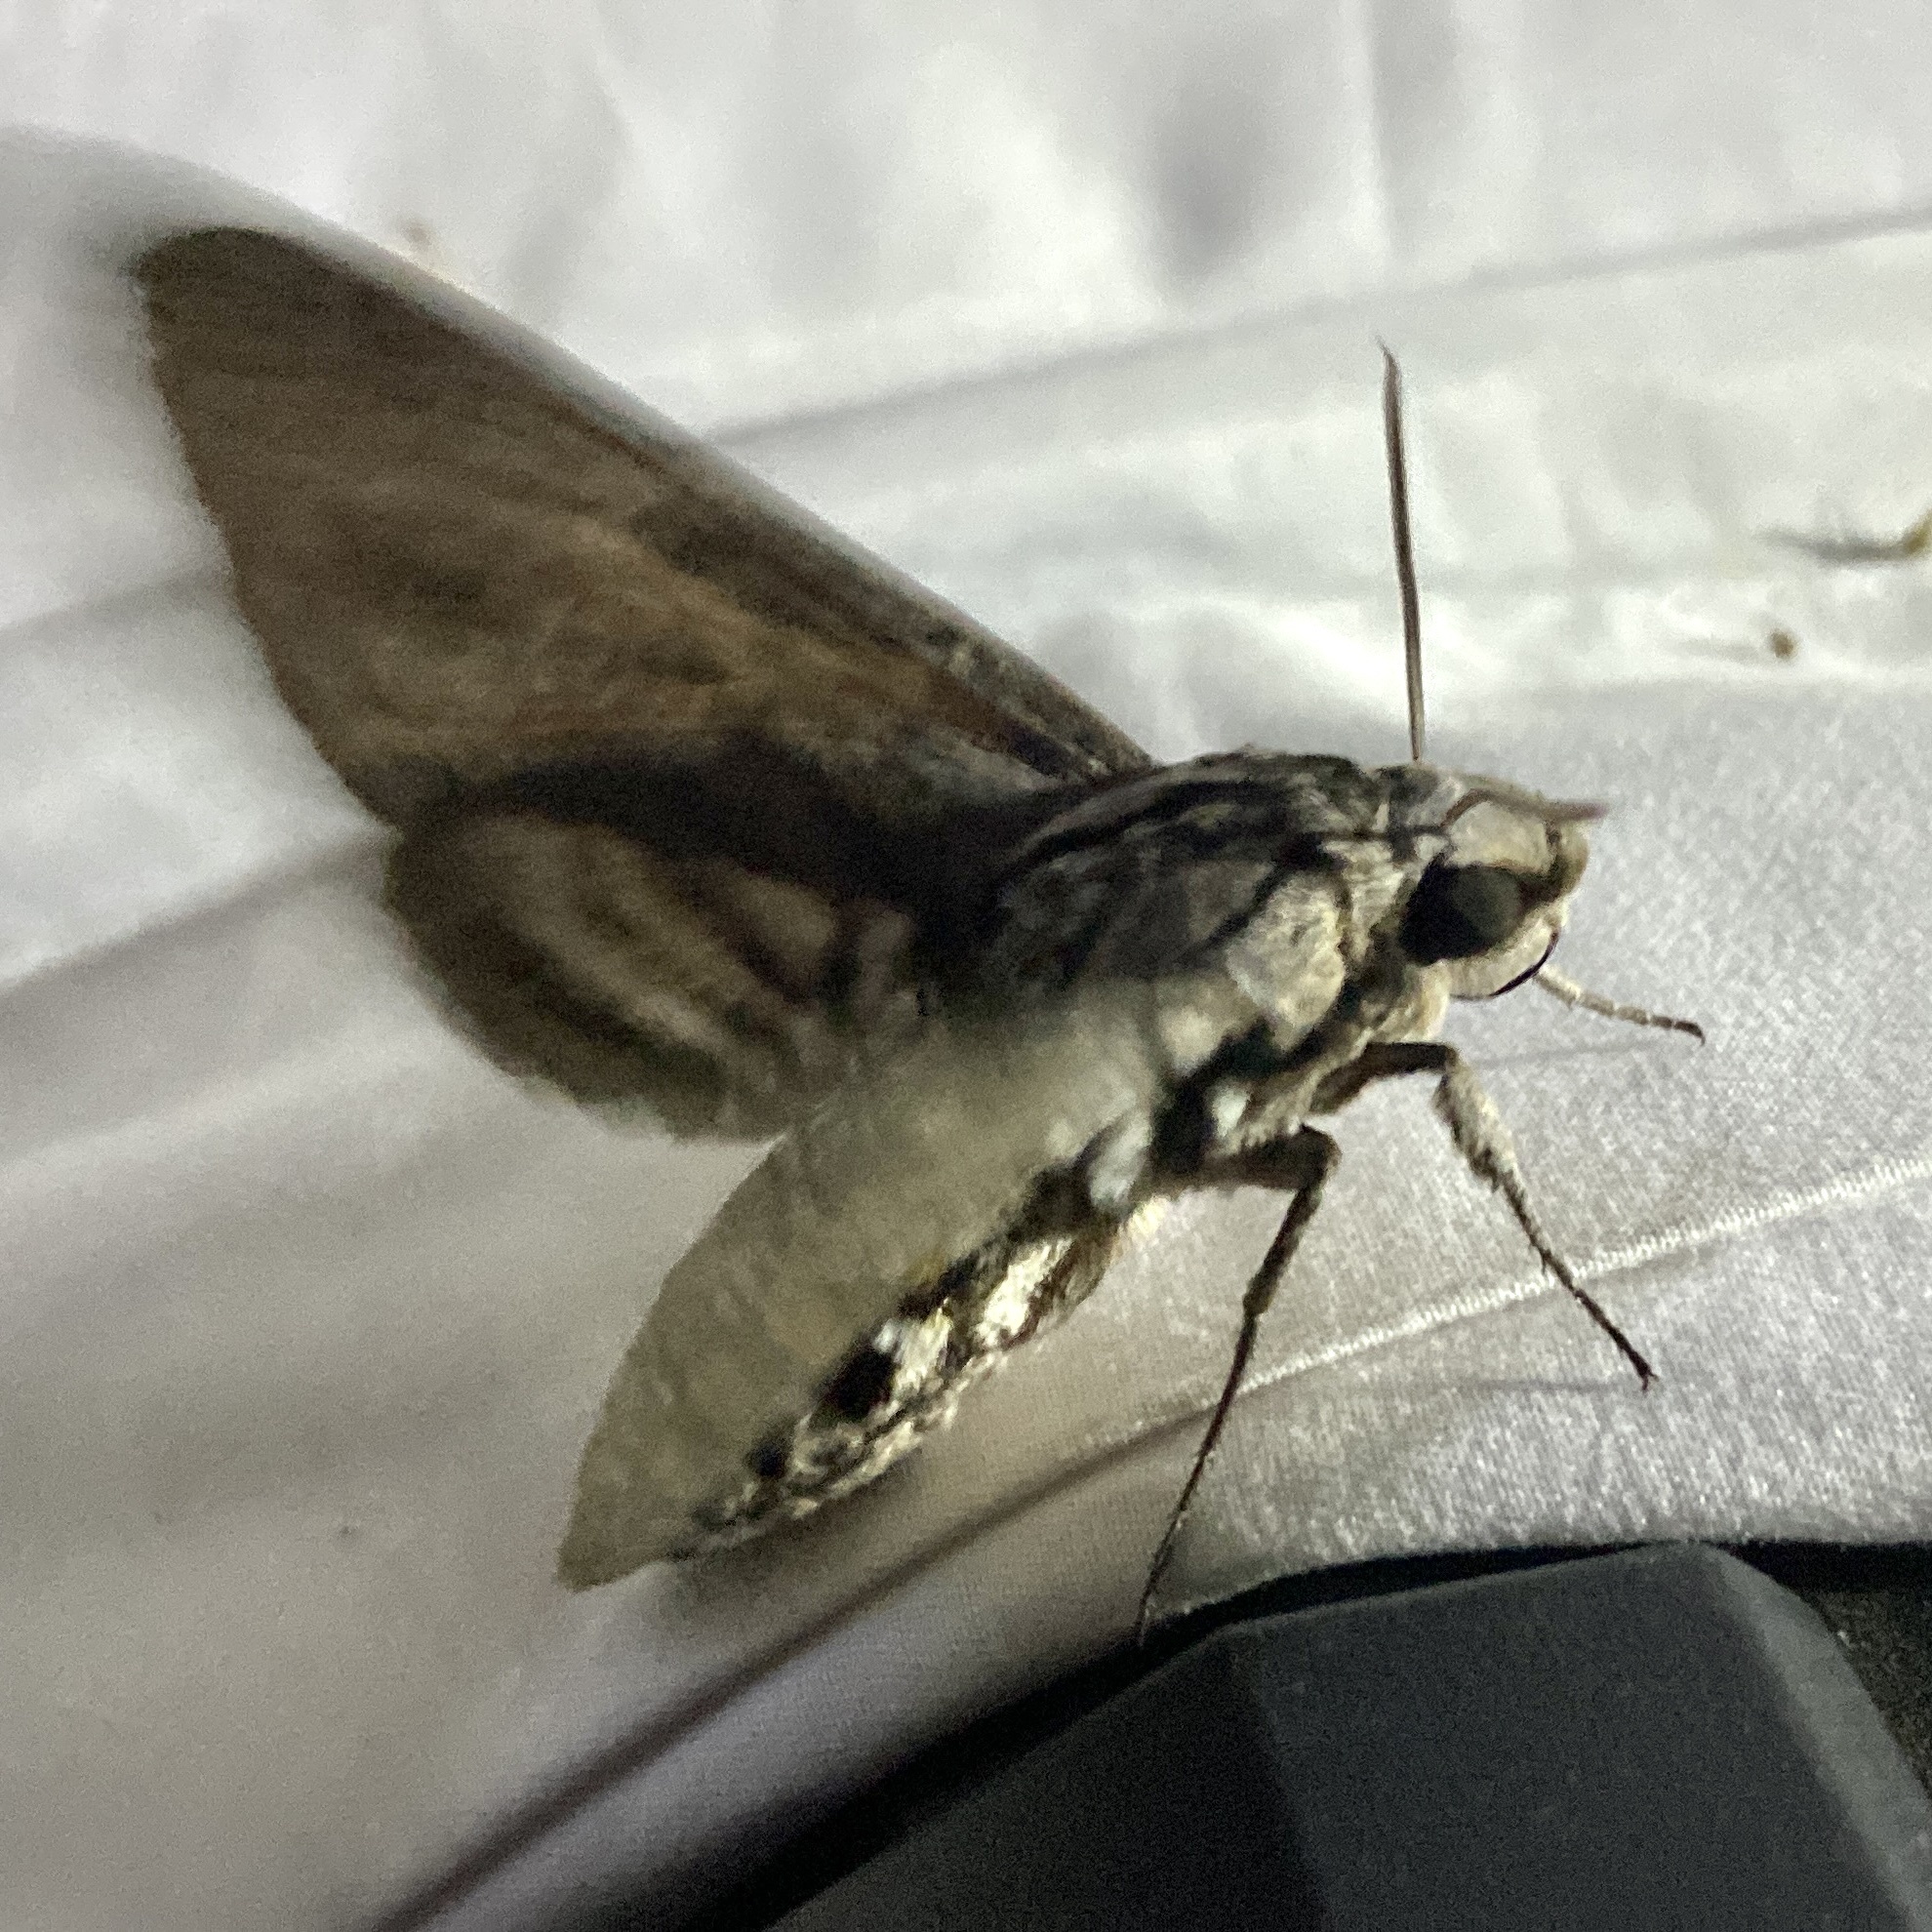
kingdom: Animalia
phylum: Arthropoda
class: Insecta
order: Lepidoptera
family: Sphingidae
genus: Manduca
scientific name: Manduca quinquemaculatus
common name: Five-spotted hawk-moth
